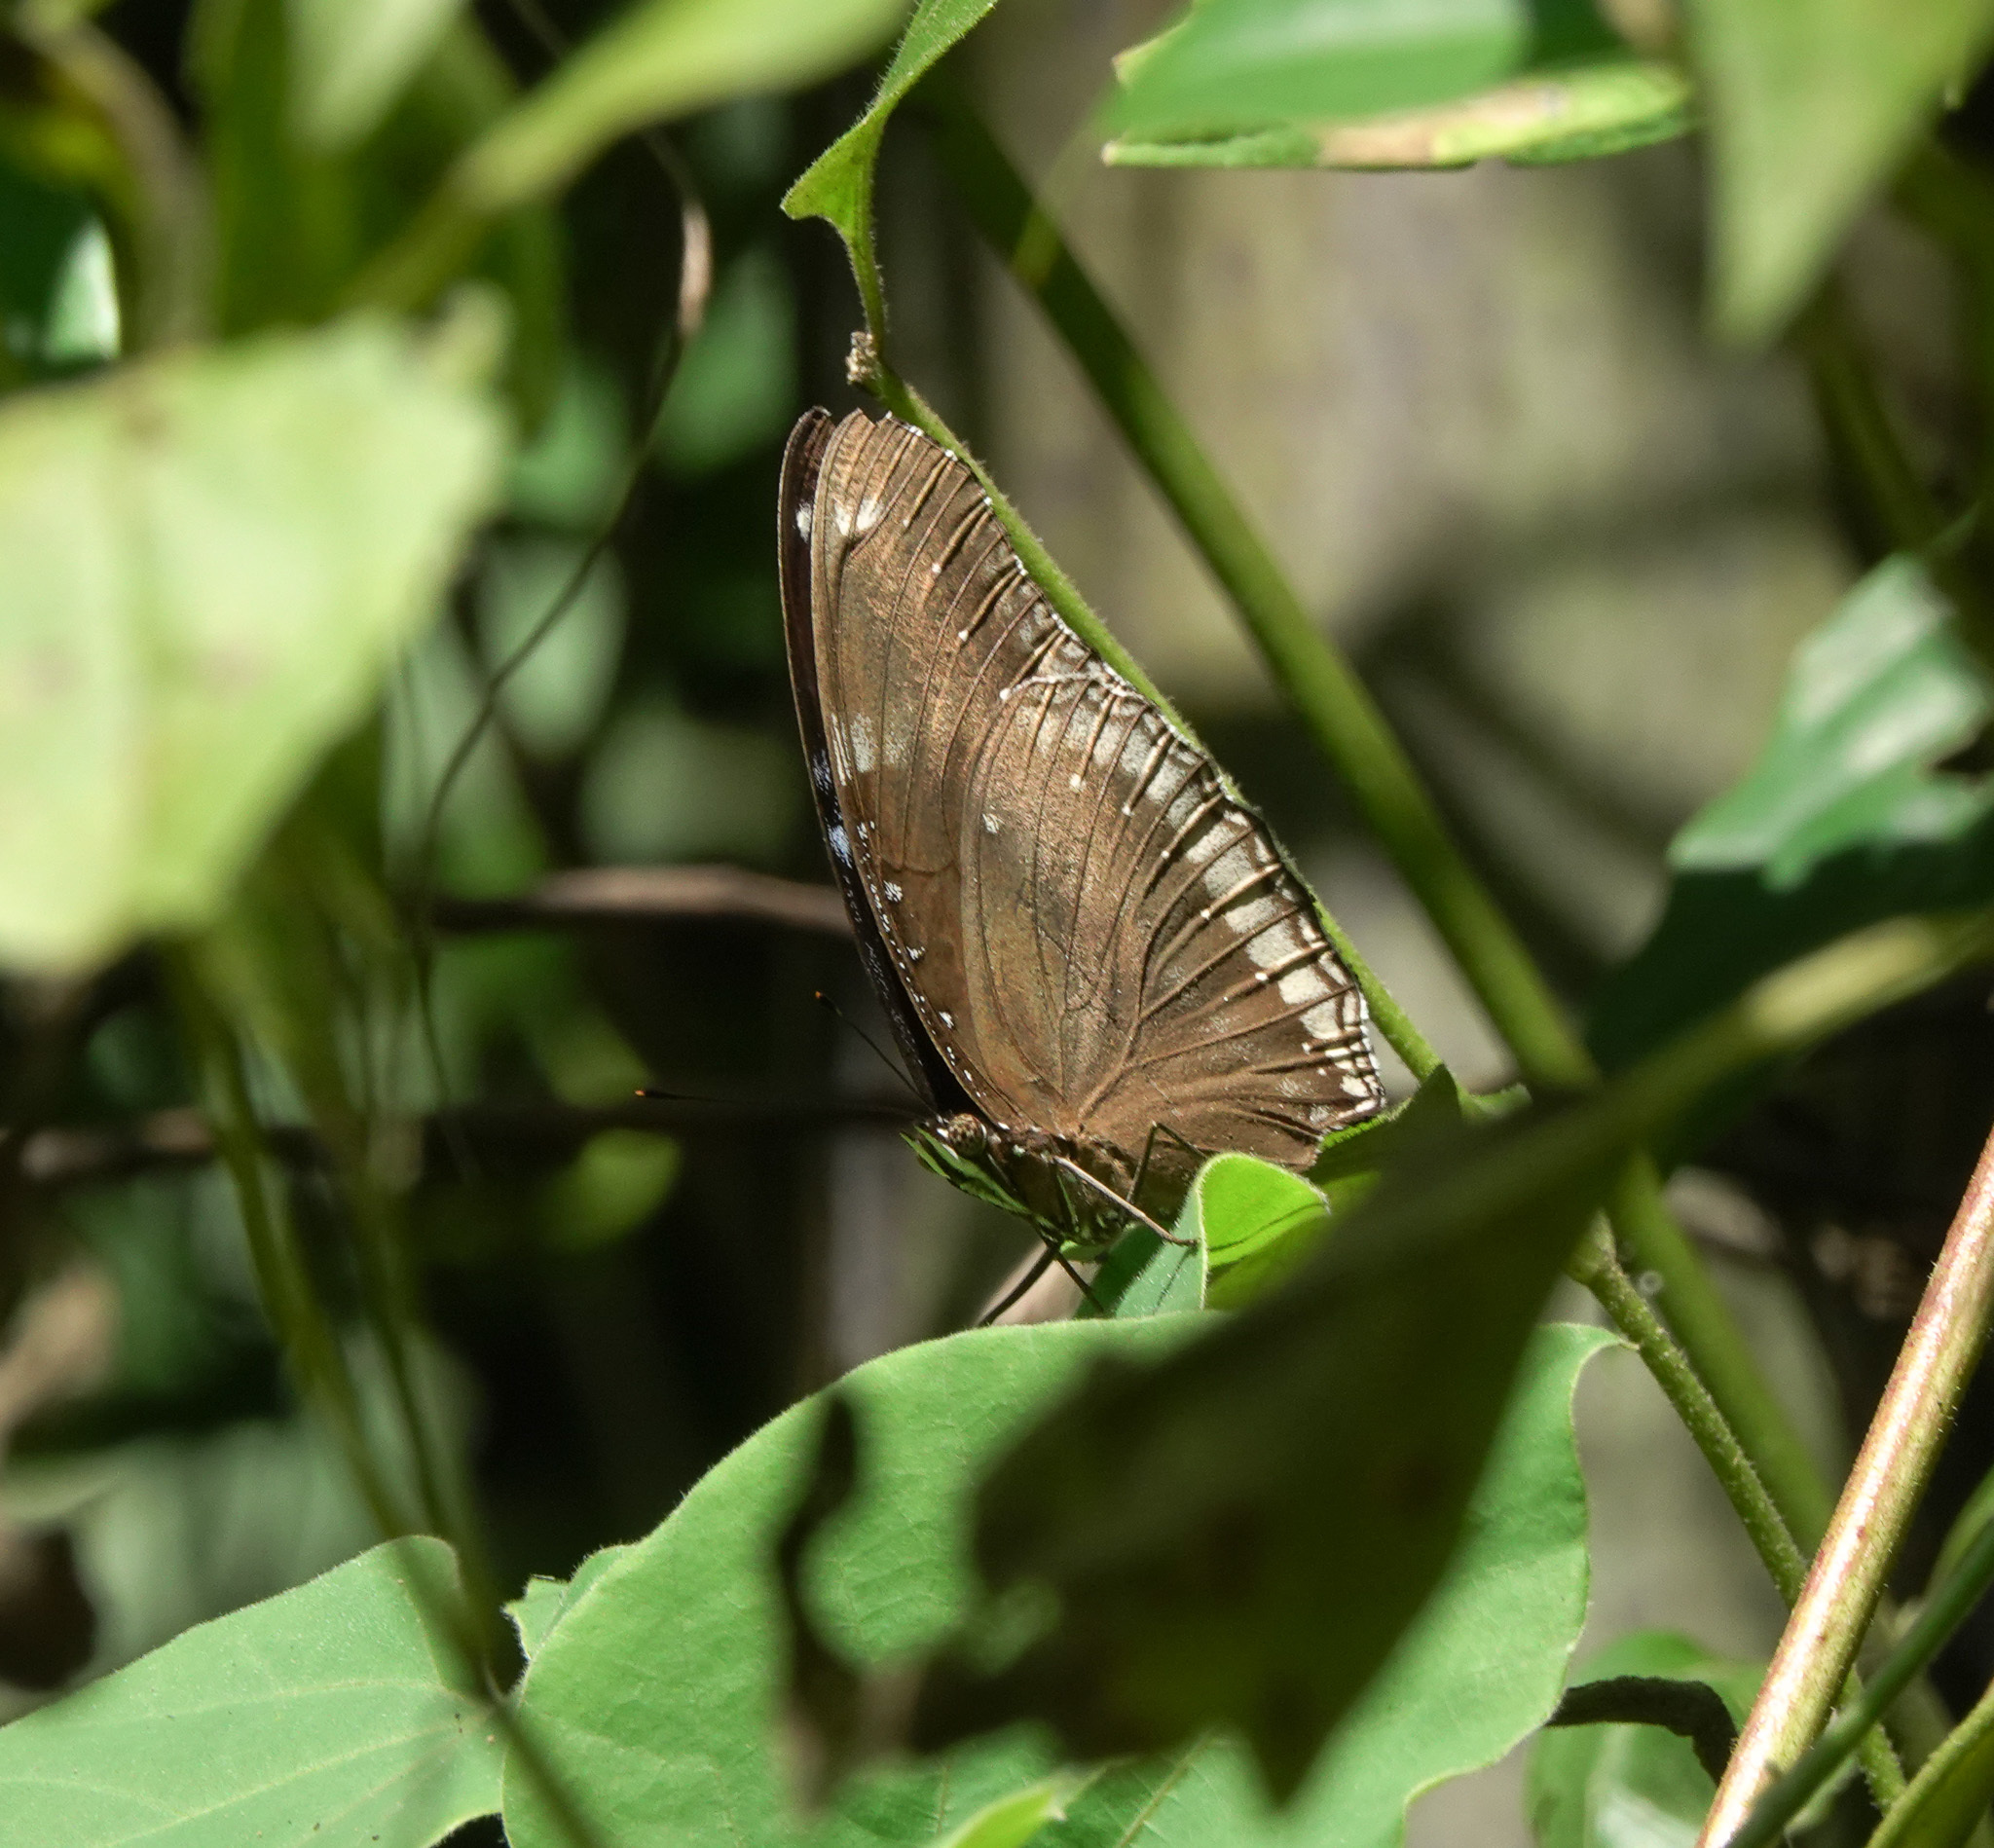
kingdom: Animalia
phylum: Arthropoda
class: Insecta
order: Lepidoptera
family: Nymphalidae
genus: Hypolimnas
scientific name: Hypolimnas bolina
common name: Great eggfly
